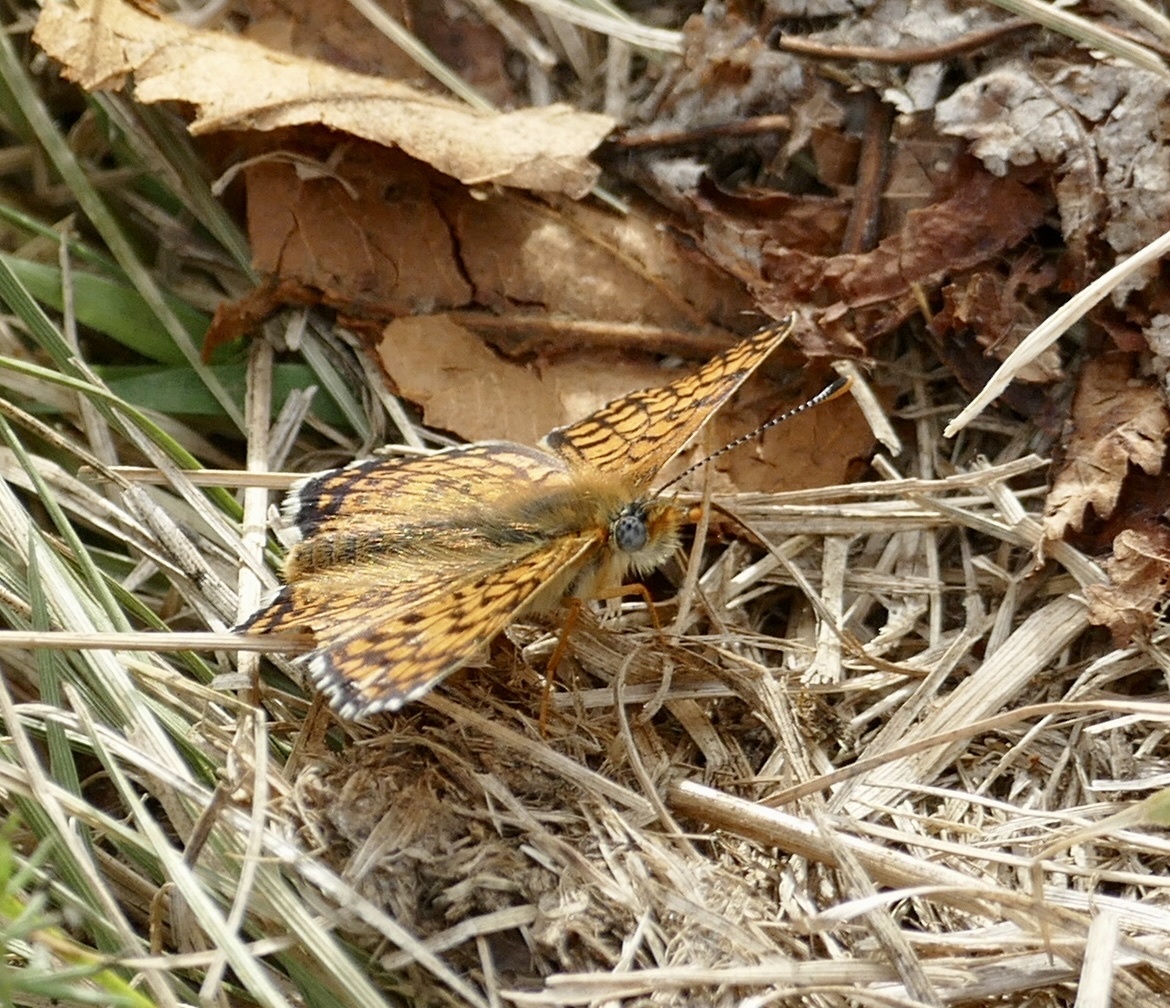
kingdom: Animalia
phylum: Arthropoda
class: Insecta
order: Lepidoptera
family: Nymphalidae
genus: Melitaea
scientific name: Melitaea cinxia
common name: Glanville fritillary
